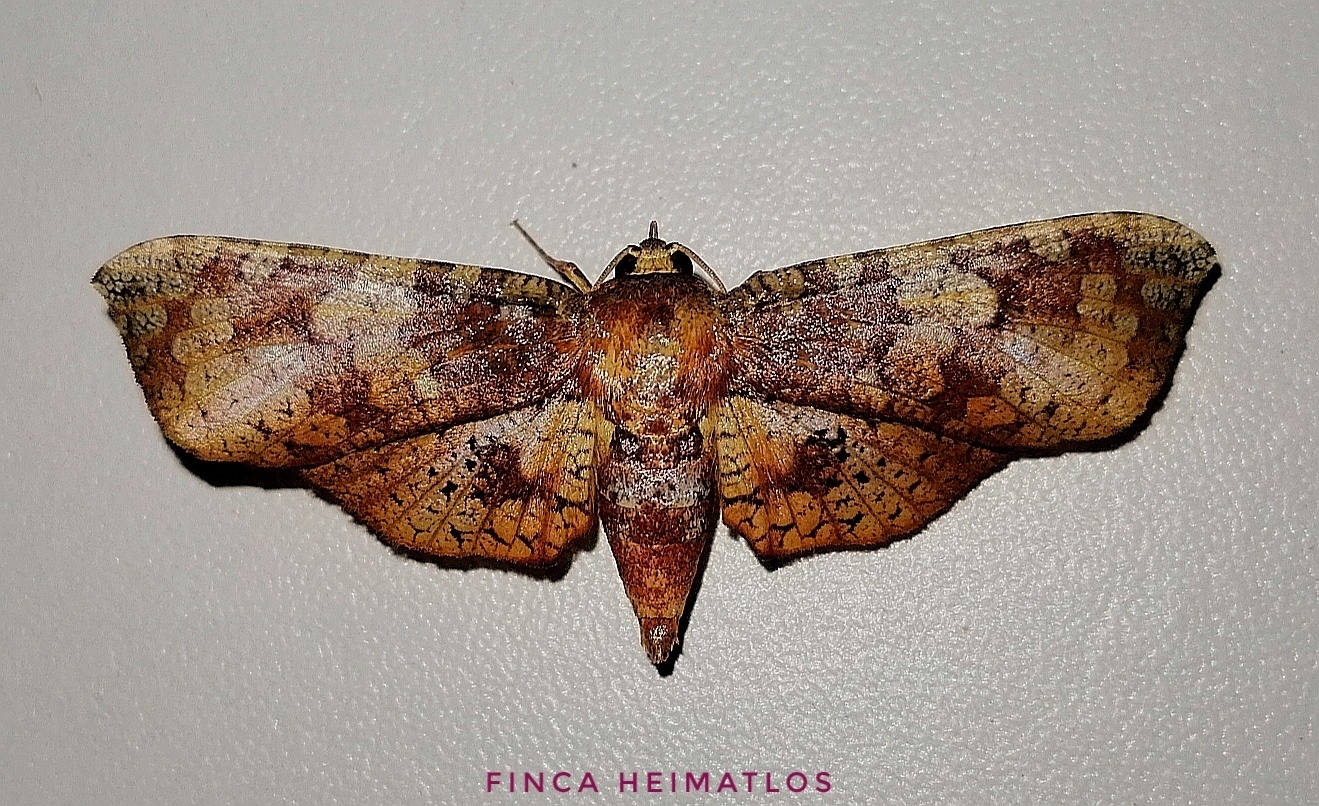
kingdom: Animalia
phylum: Arthropoda
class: Insecta
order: Lepidoptera
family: Thyrididae
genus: Rhodoneura
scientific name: Rhodoneura nebulosa
